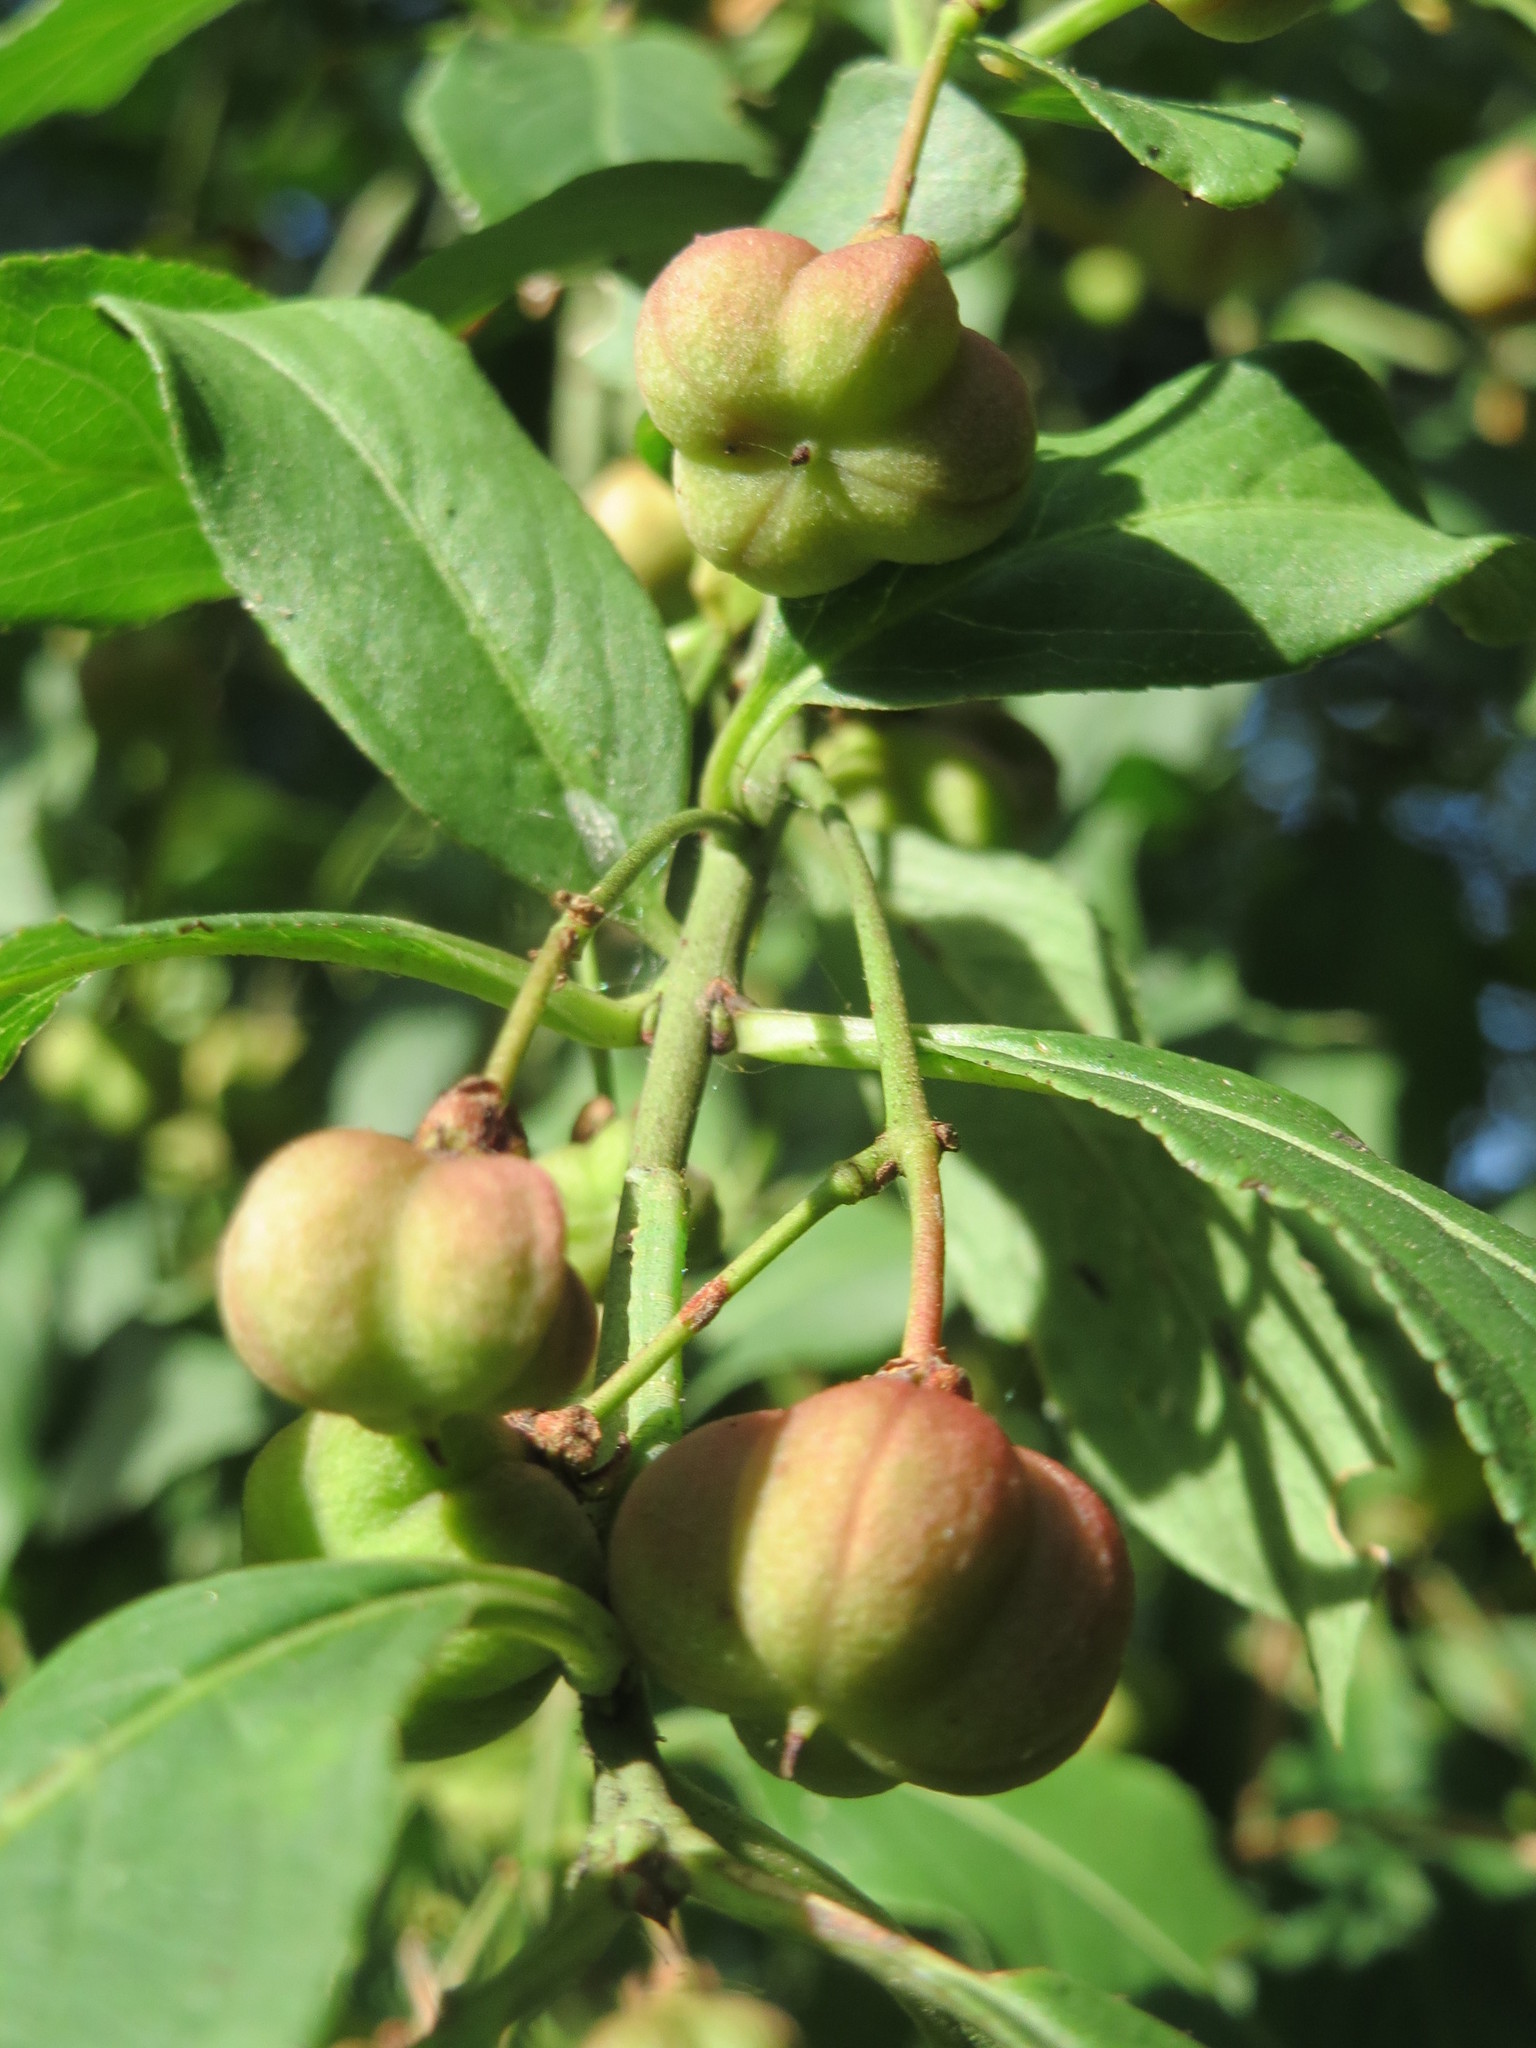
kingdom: Plantae
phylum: Tracheophyta
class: Magnoliopsida
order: Celastrales
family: Celastraceae
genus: Euonymus
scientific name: Euonymus europaeus
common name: Spindle
